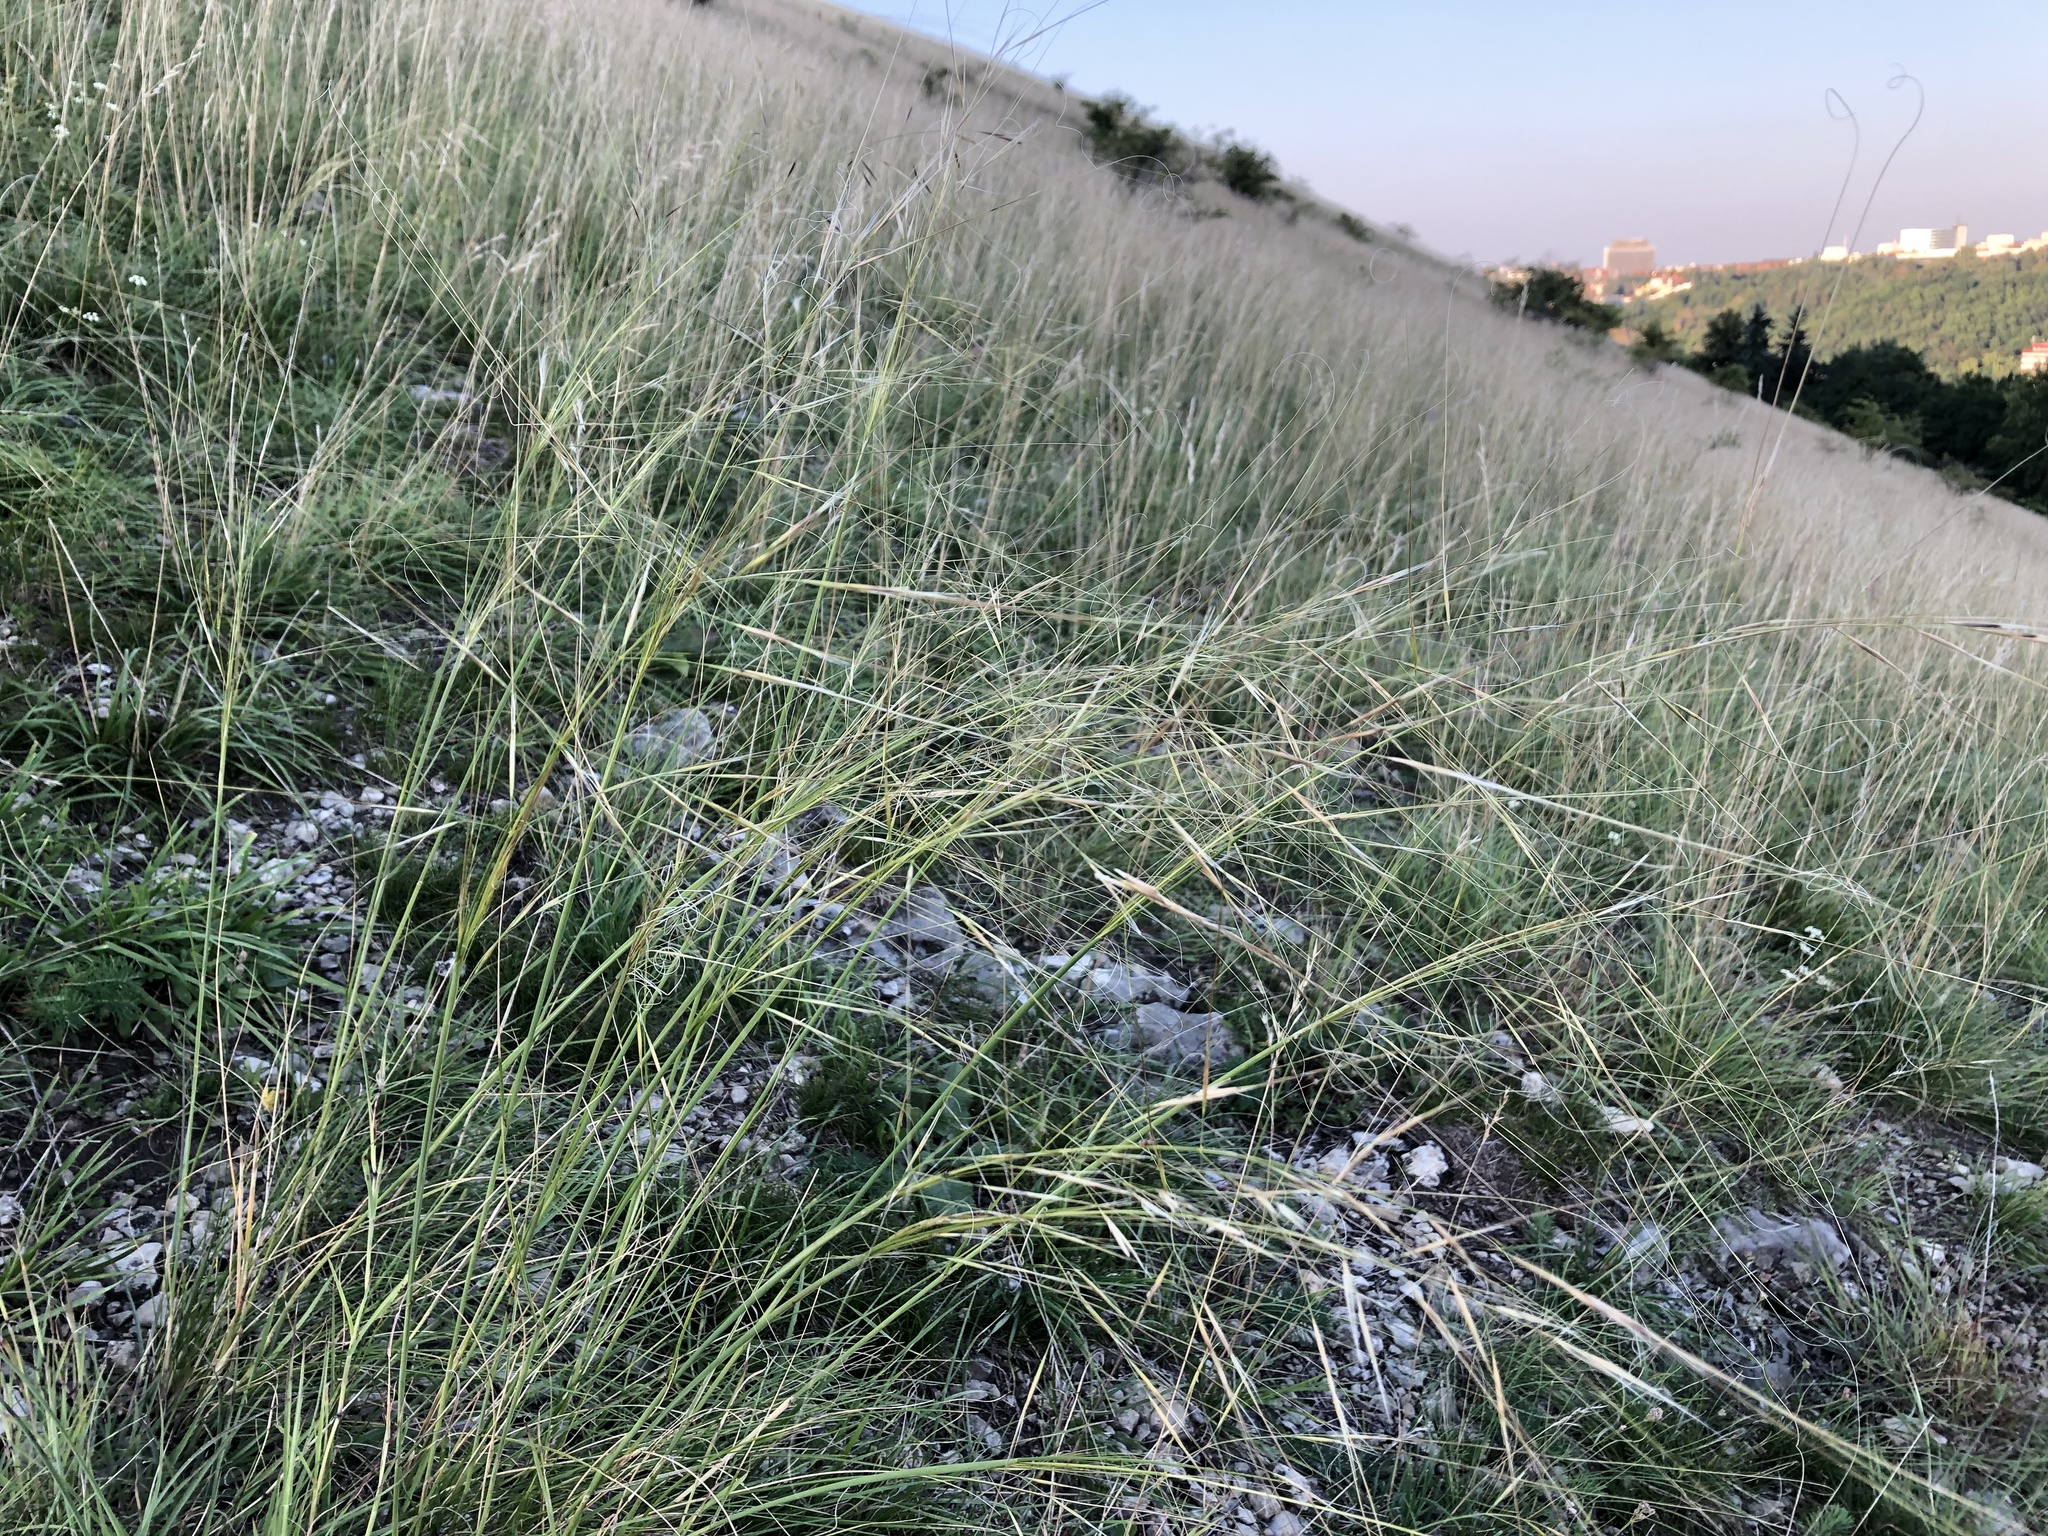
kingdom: Plantae
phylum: Tracheophyta
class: Liliopsida
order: Poales
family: Poaceae
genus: Stipa
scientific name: Stipa capillata
